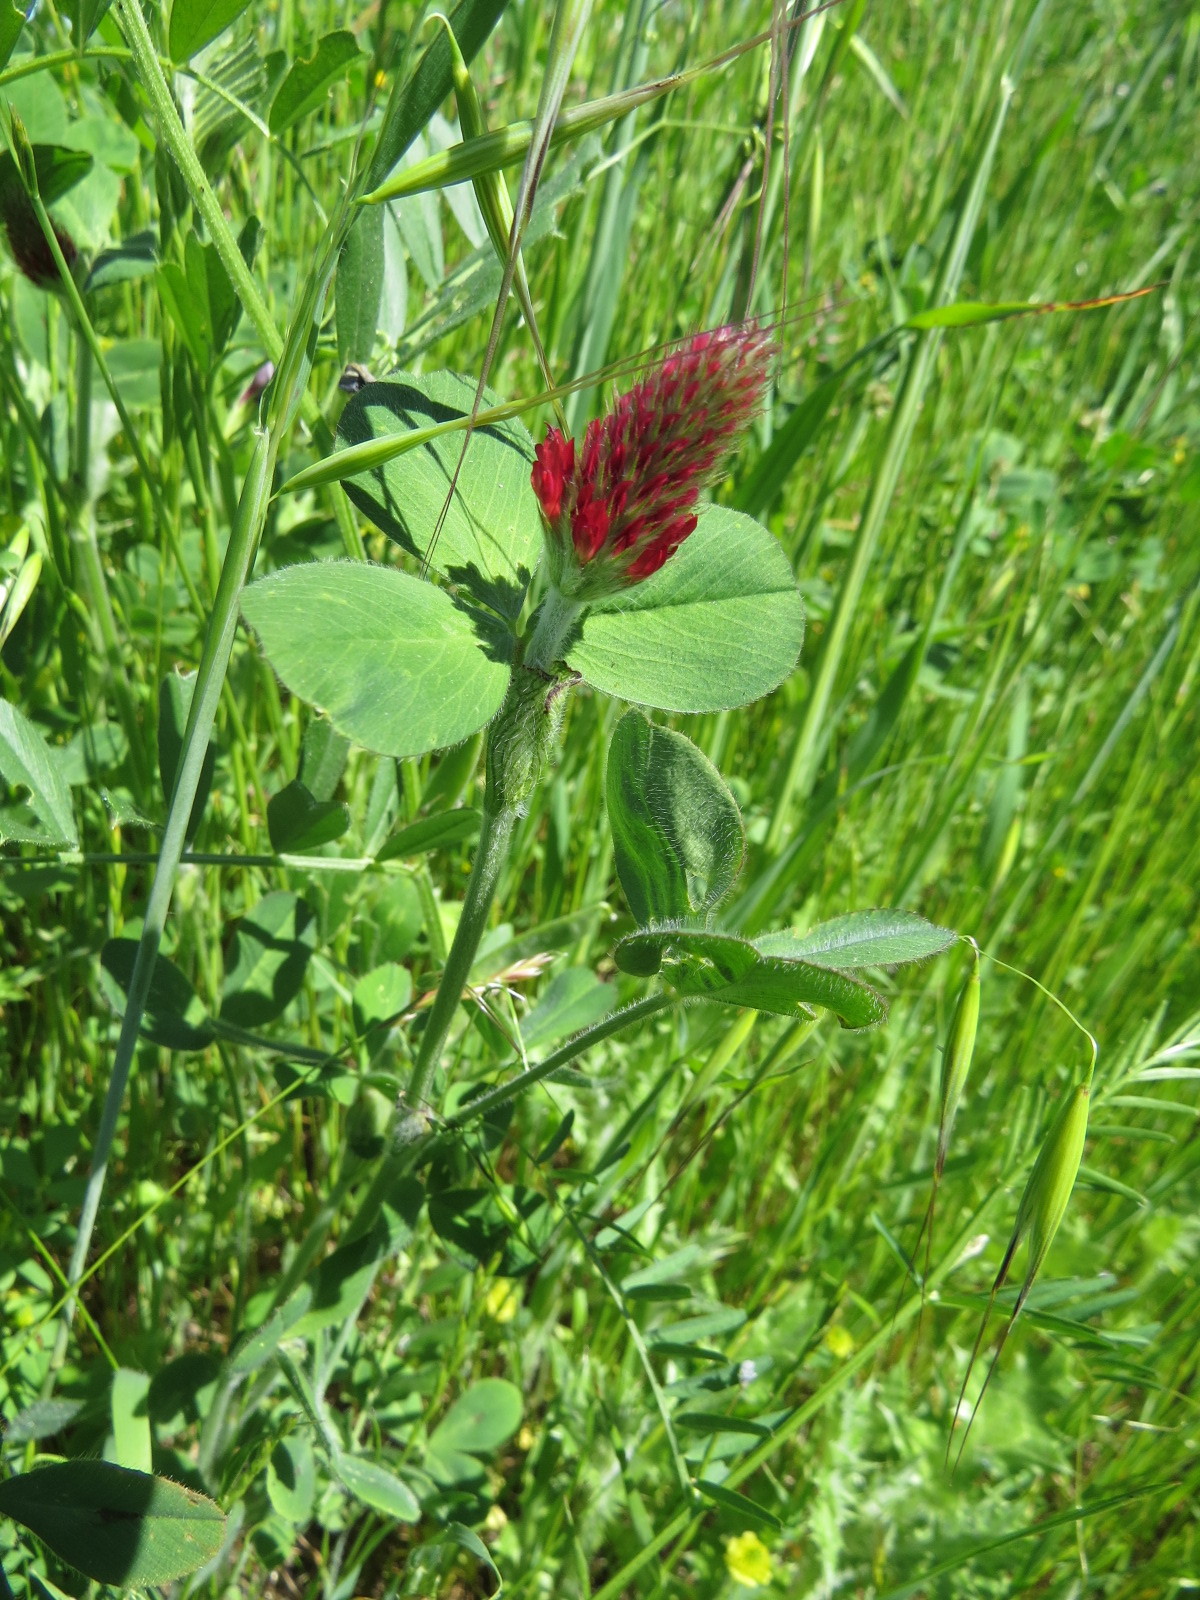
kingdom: Plantae
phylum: Tracheophyta
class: Magnoliopsida
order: Fabales
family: Fabaceae
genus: Trifolium
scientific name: Trifolium incarnatum
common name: Crimson clover
